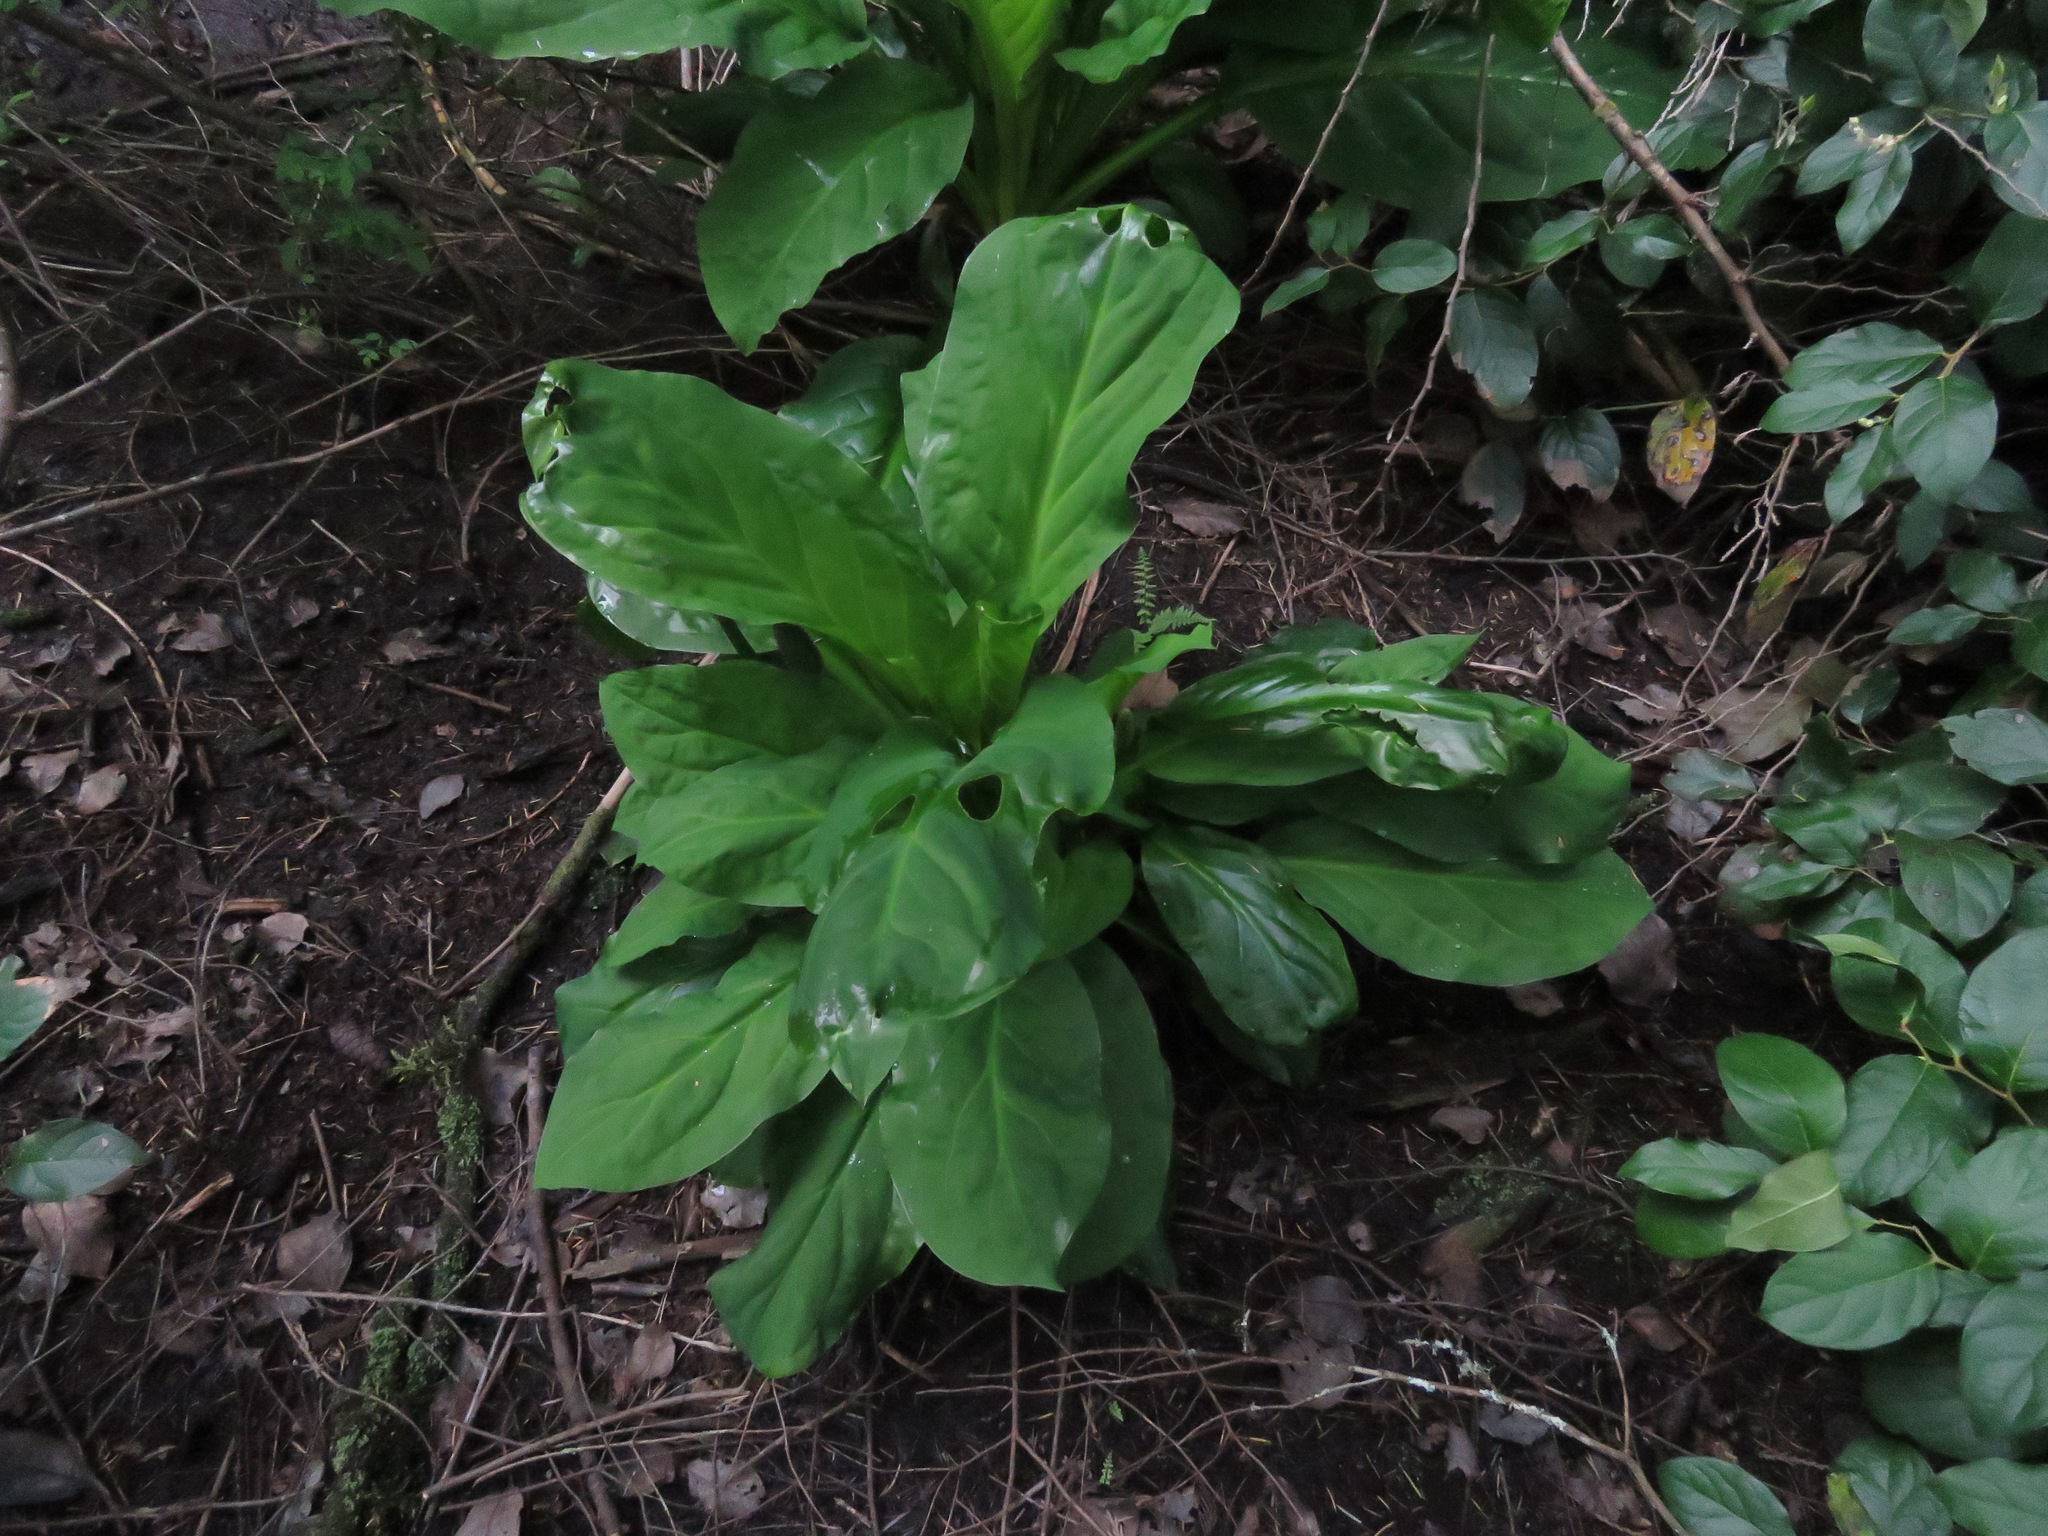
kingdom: Plantae
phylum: Tracheophyta
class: Liliopsida
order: Alismatales
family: Araceae
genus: Lysichiton
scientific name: Lysichiton americanus
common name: American skunk cabbage
